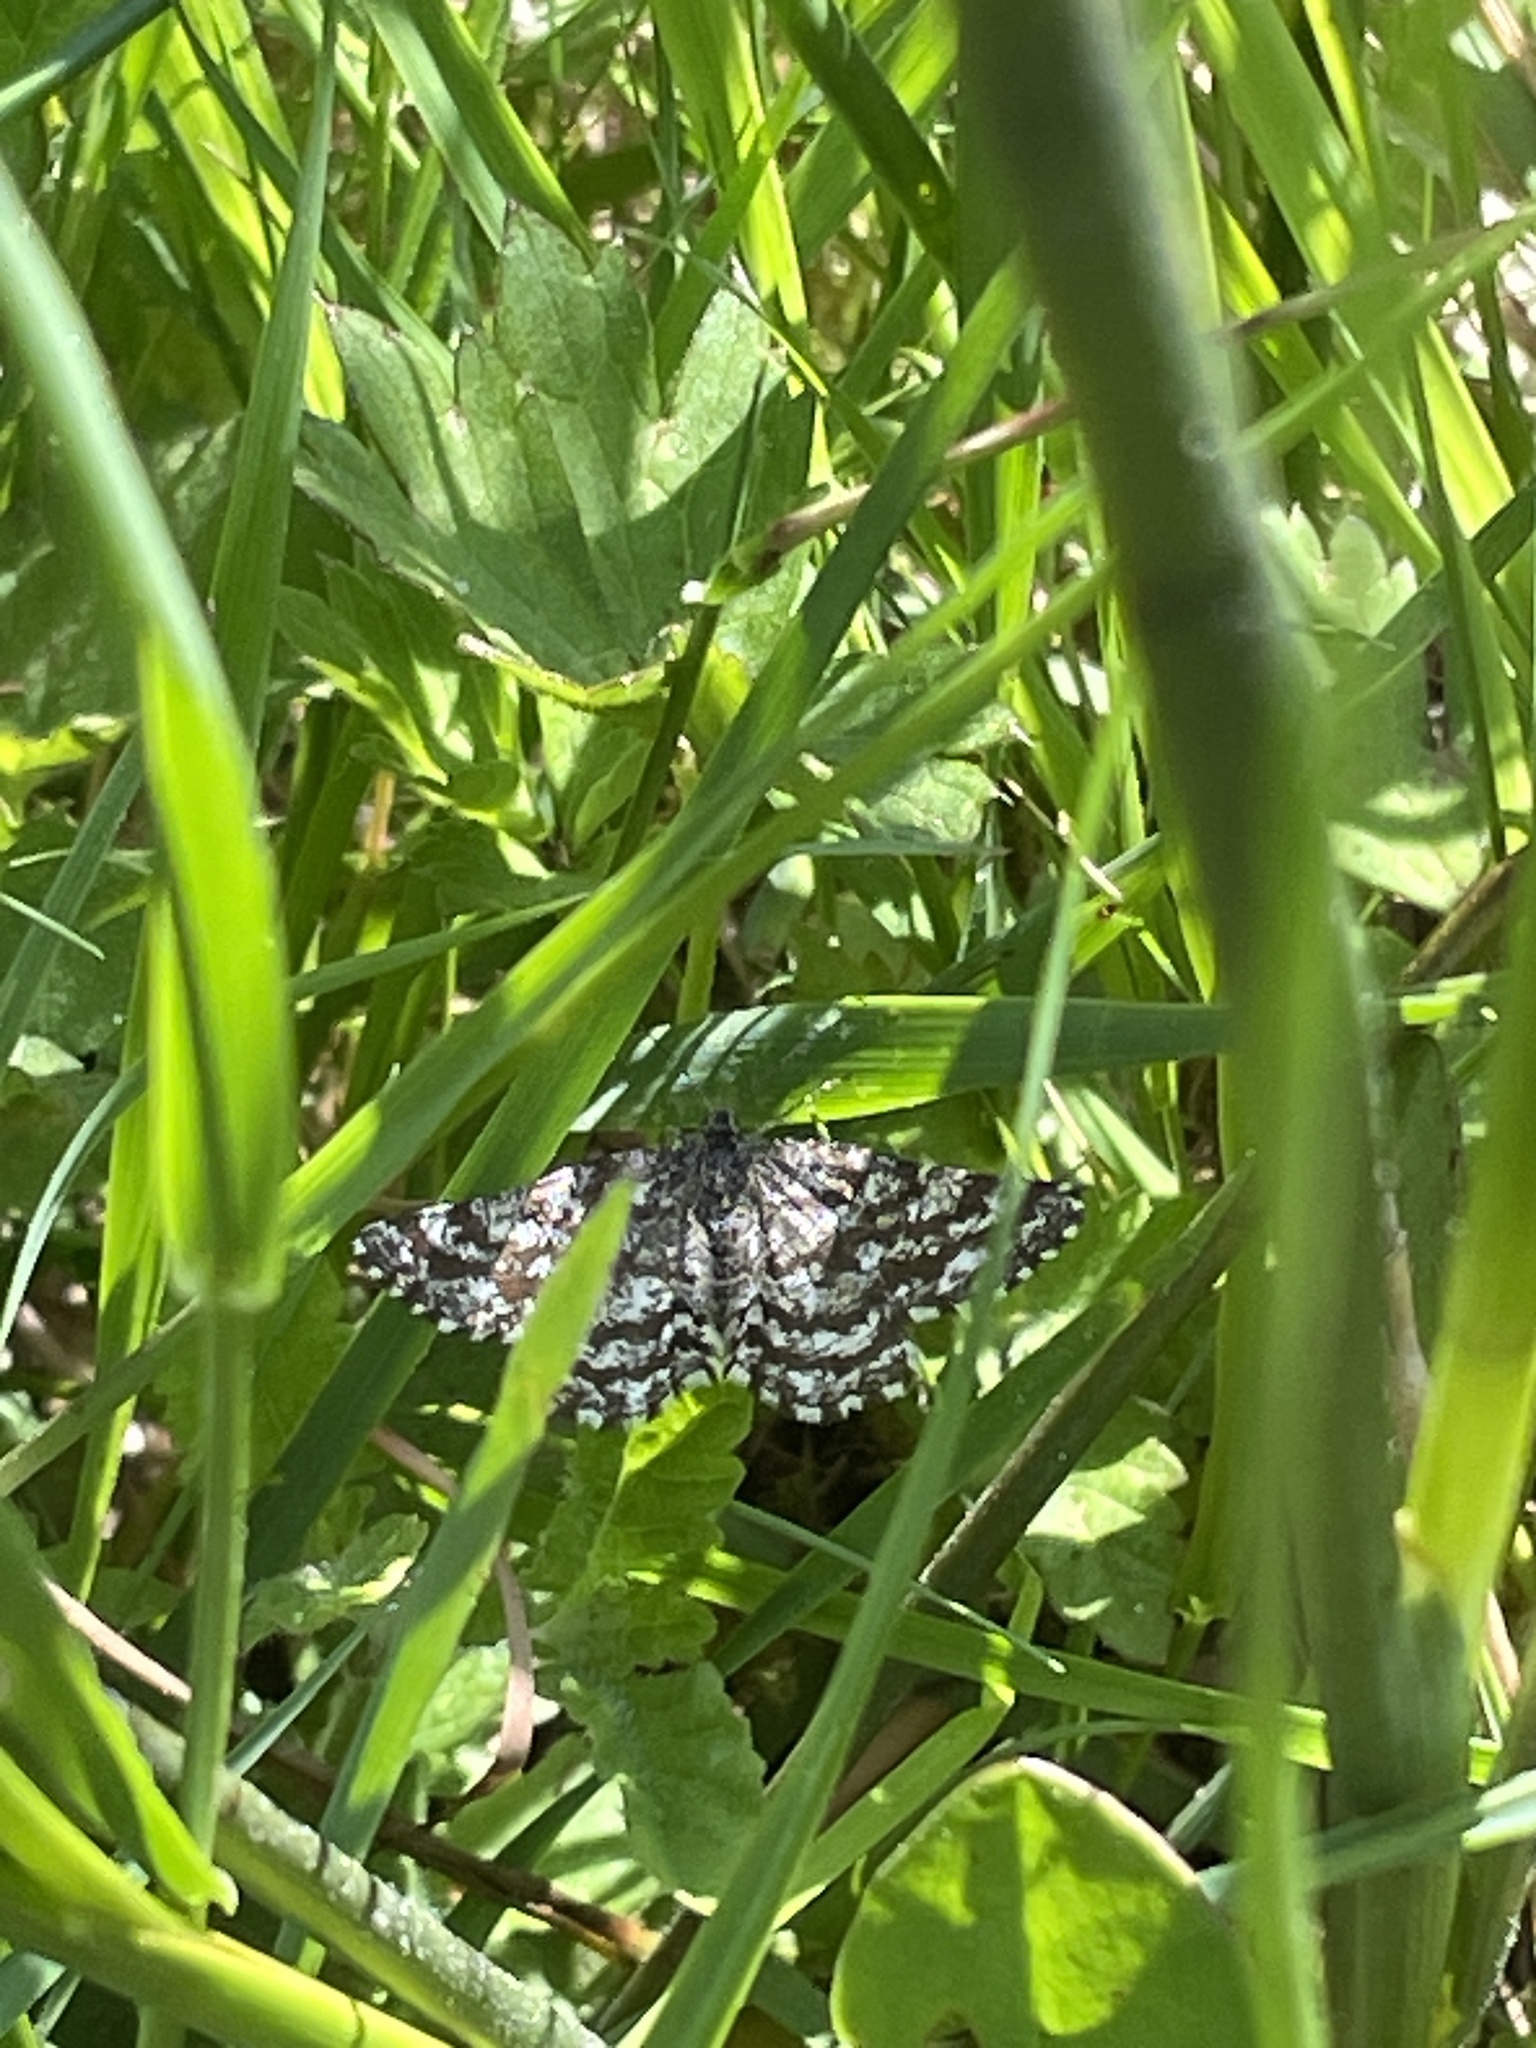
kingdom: Animalia
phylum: Arthropoda
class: Insecta
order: Lepidoptera
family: Geometridae
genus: Ematurga
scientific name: Ematurga atomaria
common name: Common heath
